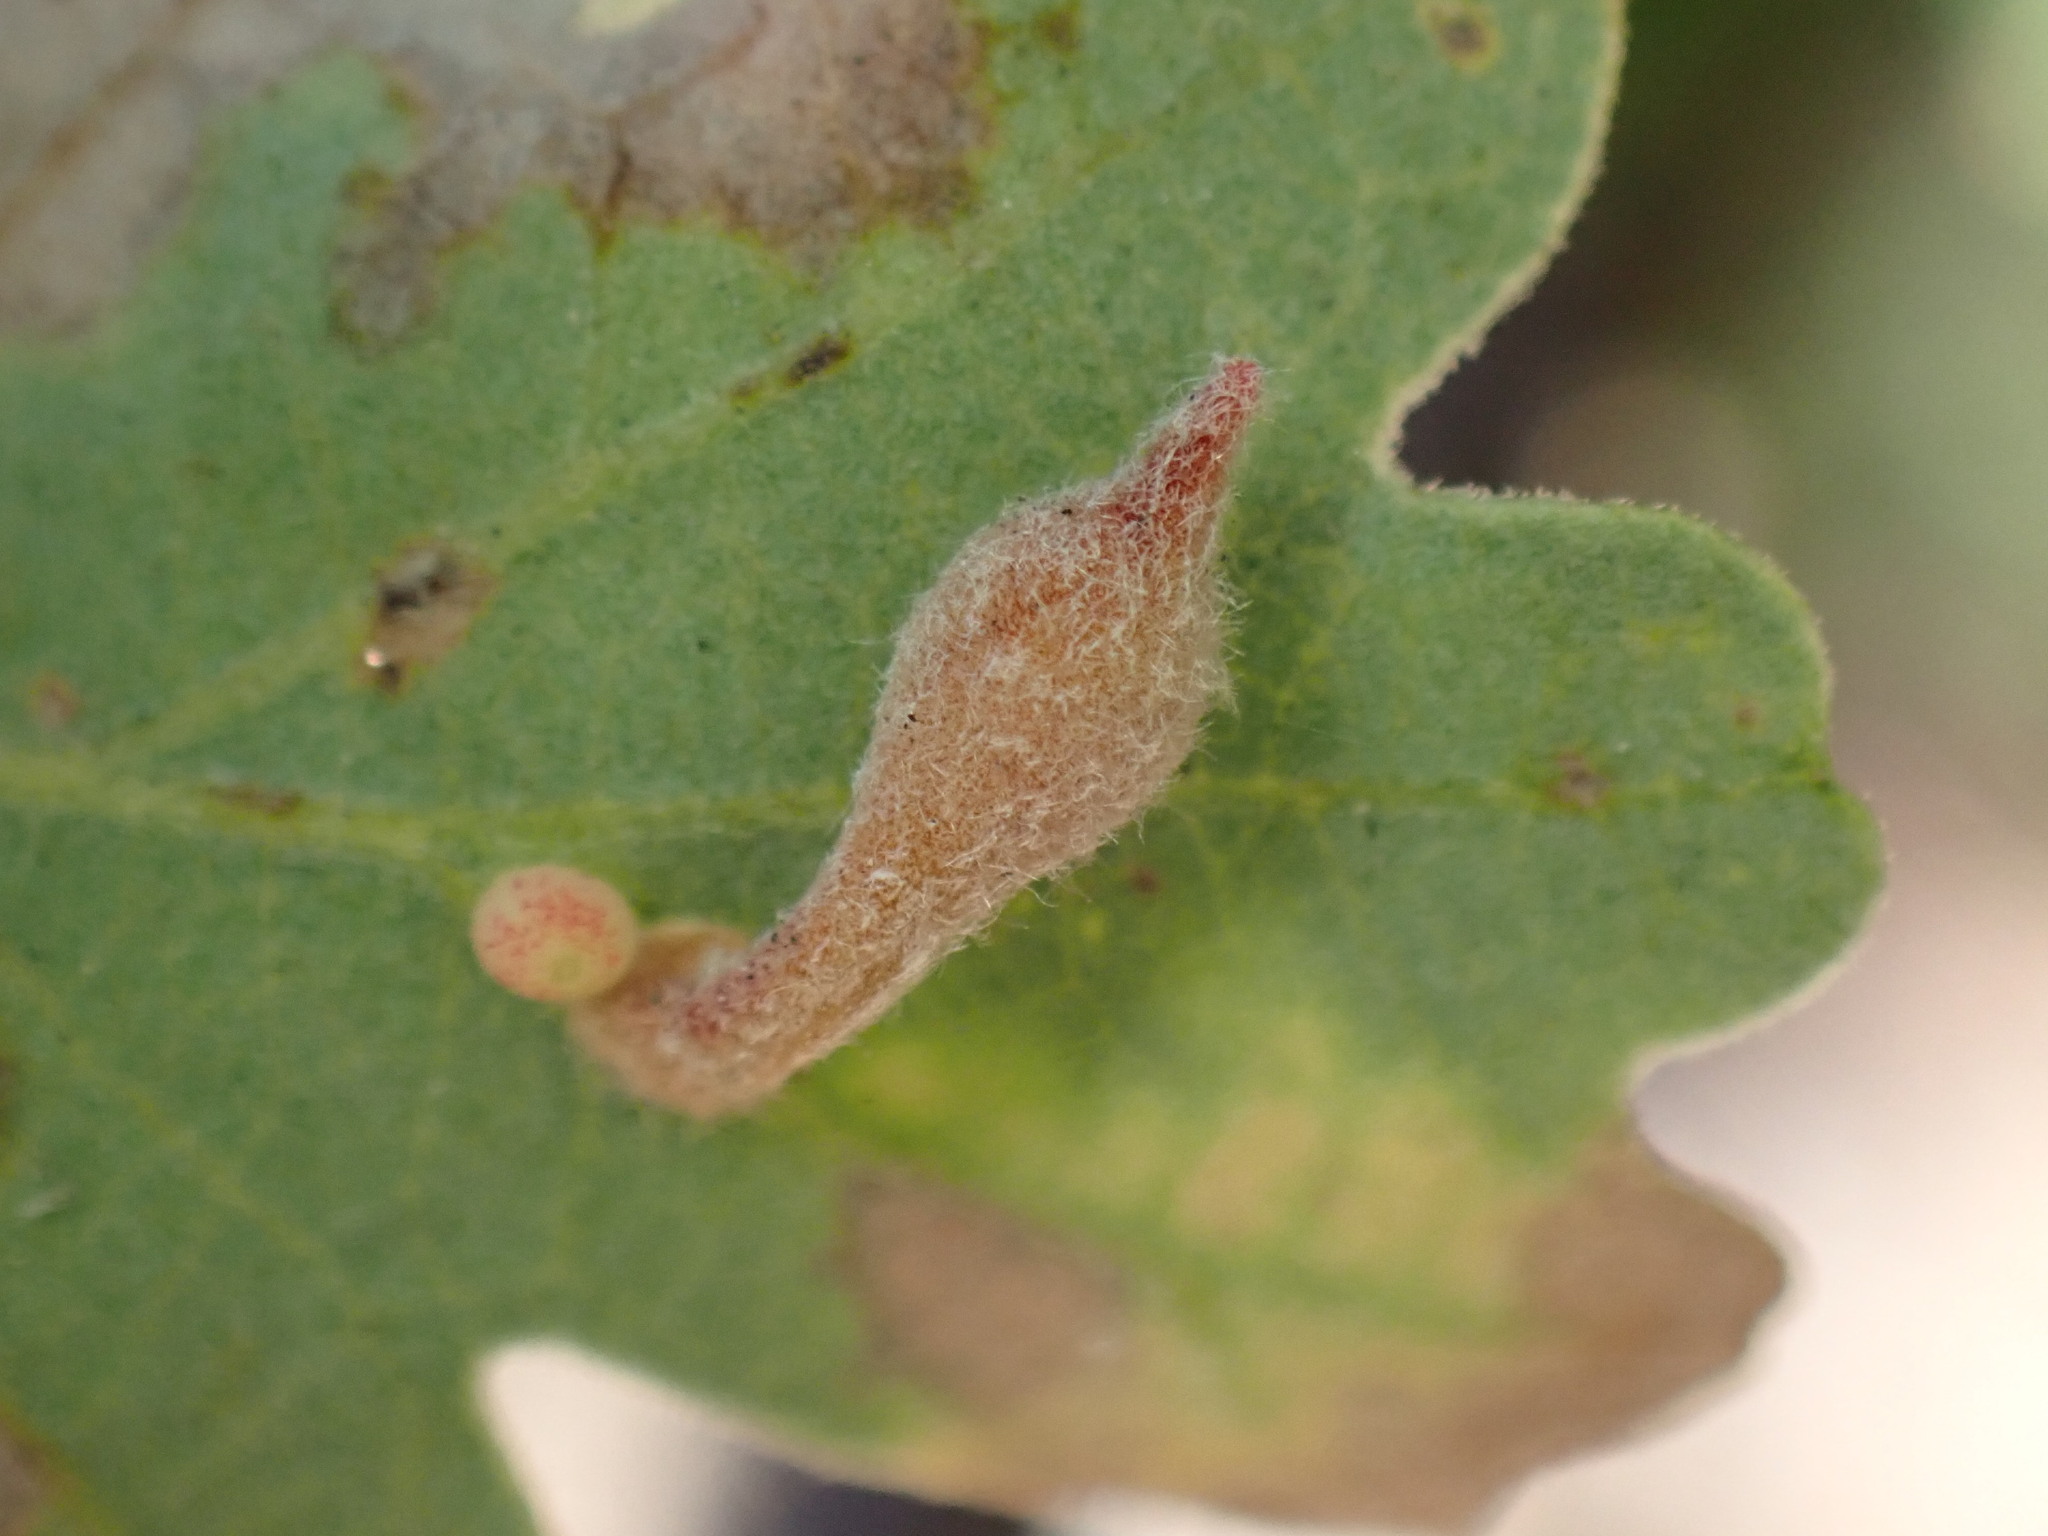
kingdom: Animalia
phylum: Arthropoda
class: Insecta
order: Hymenoptera
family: Cynipidae
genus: Atrusca
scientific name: Atrusca
